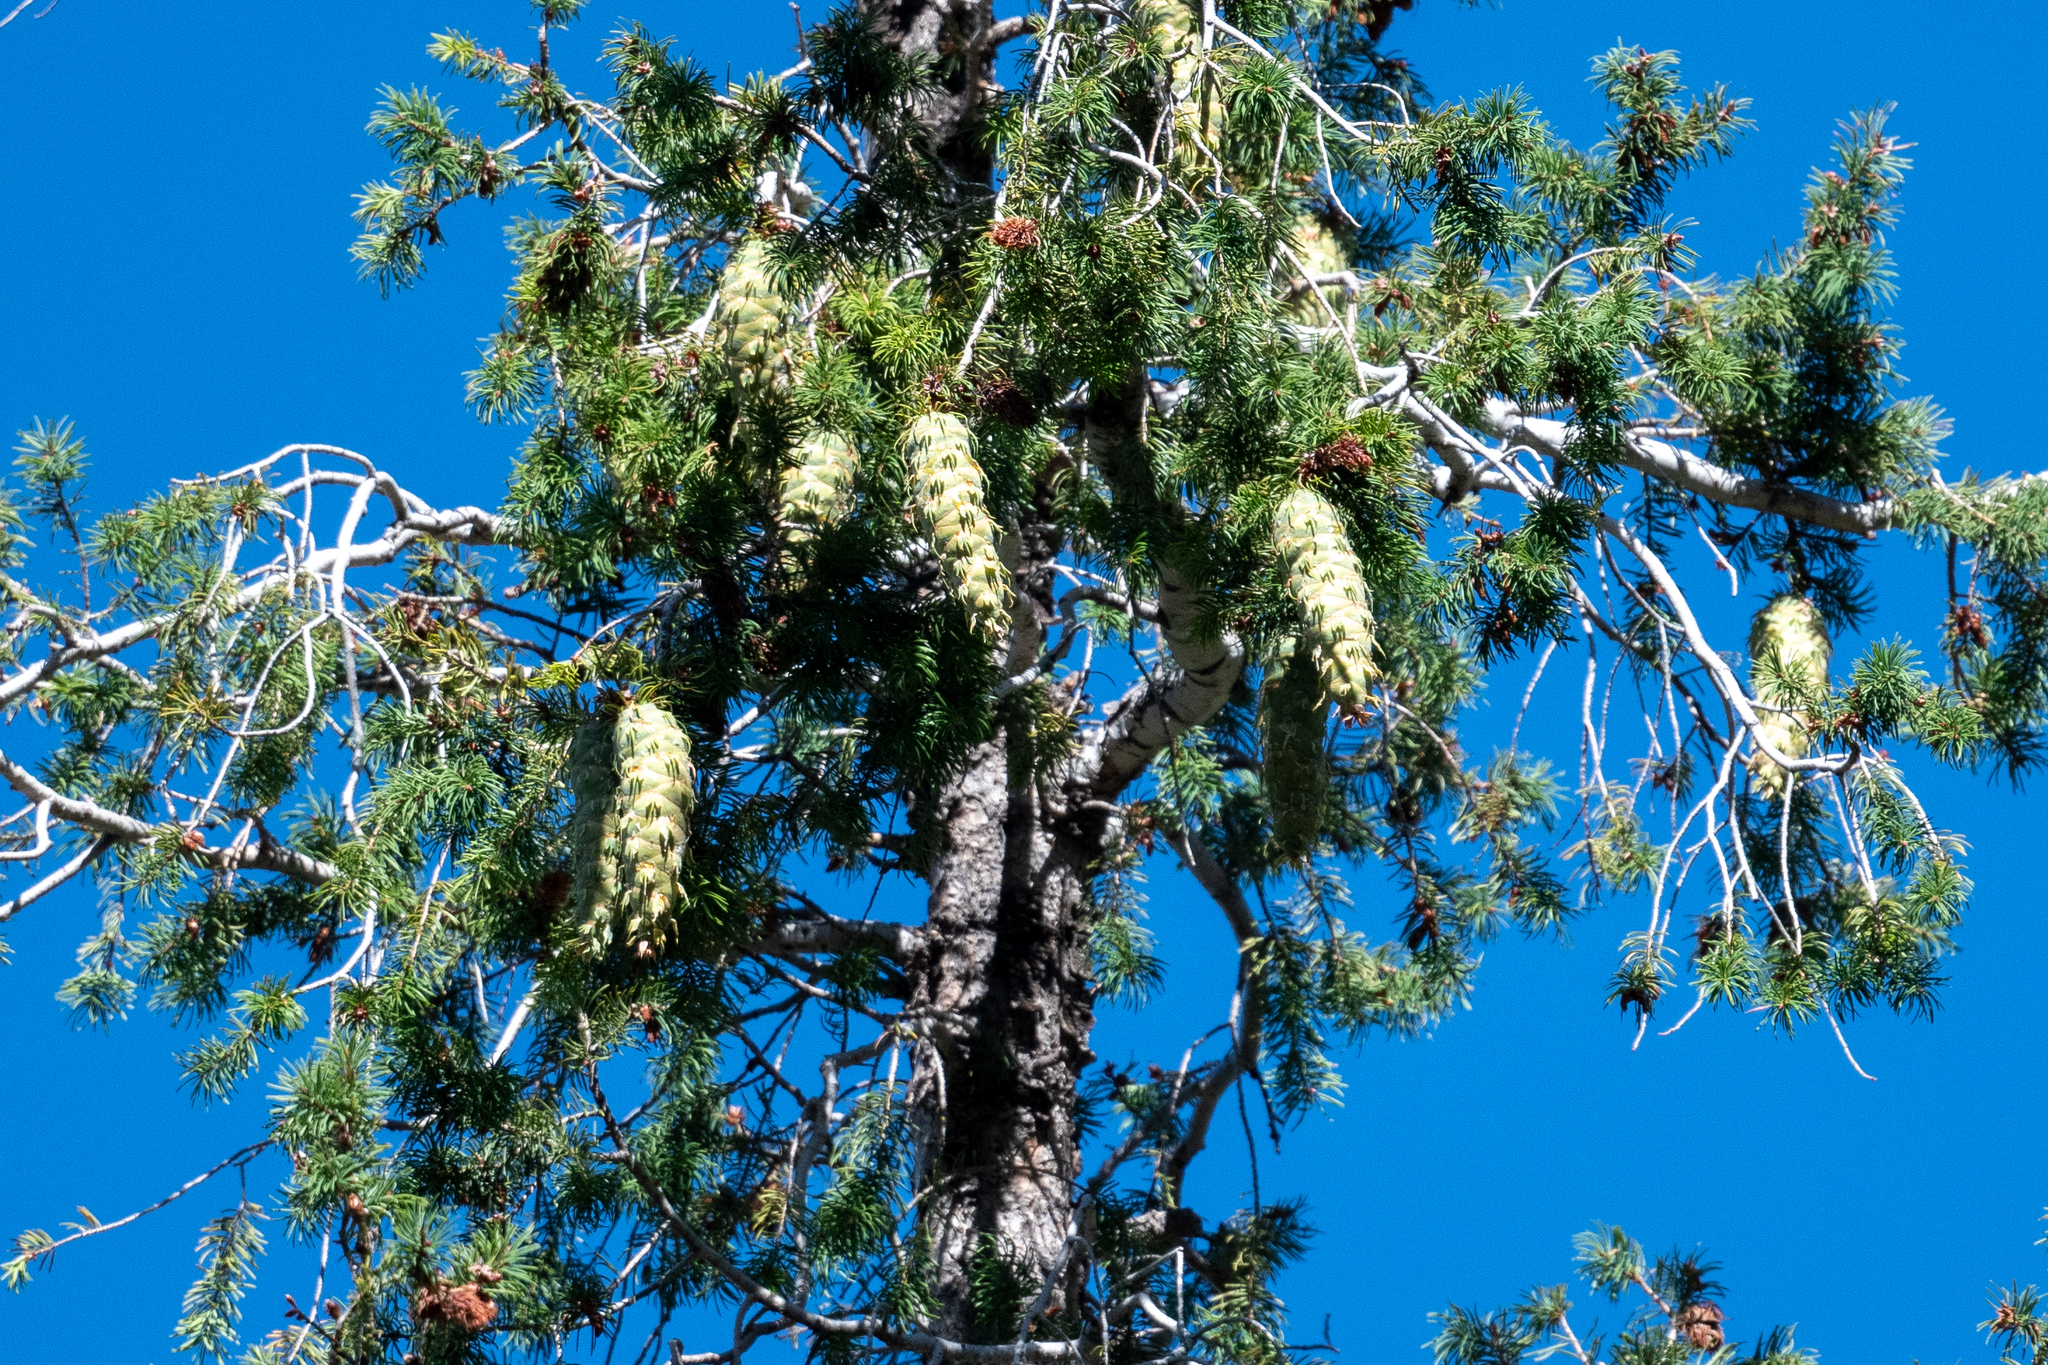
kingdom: Plantae
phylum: Tracheophyta
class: Pinopsida
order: Pinales
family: Pinaceae
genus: Pseudotsuga
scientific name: Pseudotsuga macrocarpa
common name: Big-cone douglas-fir
